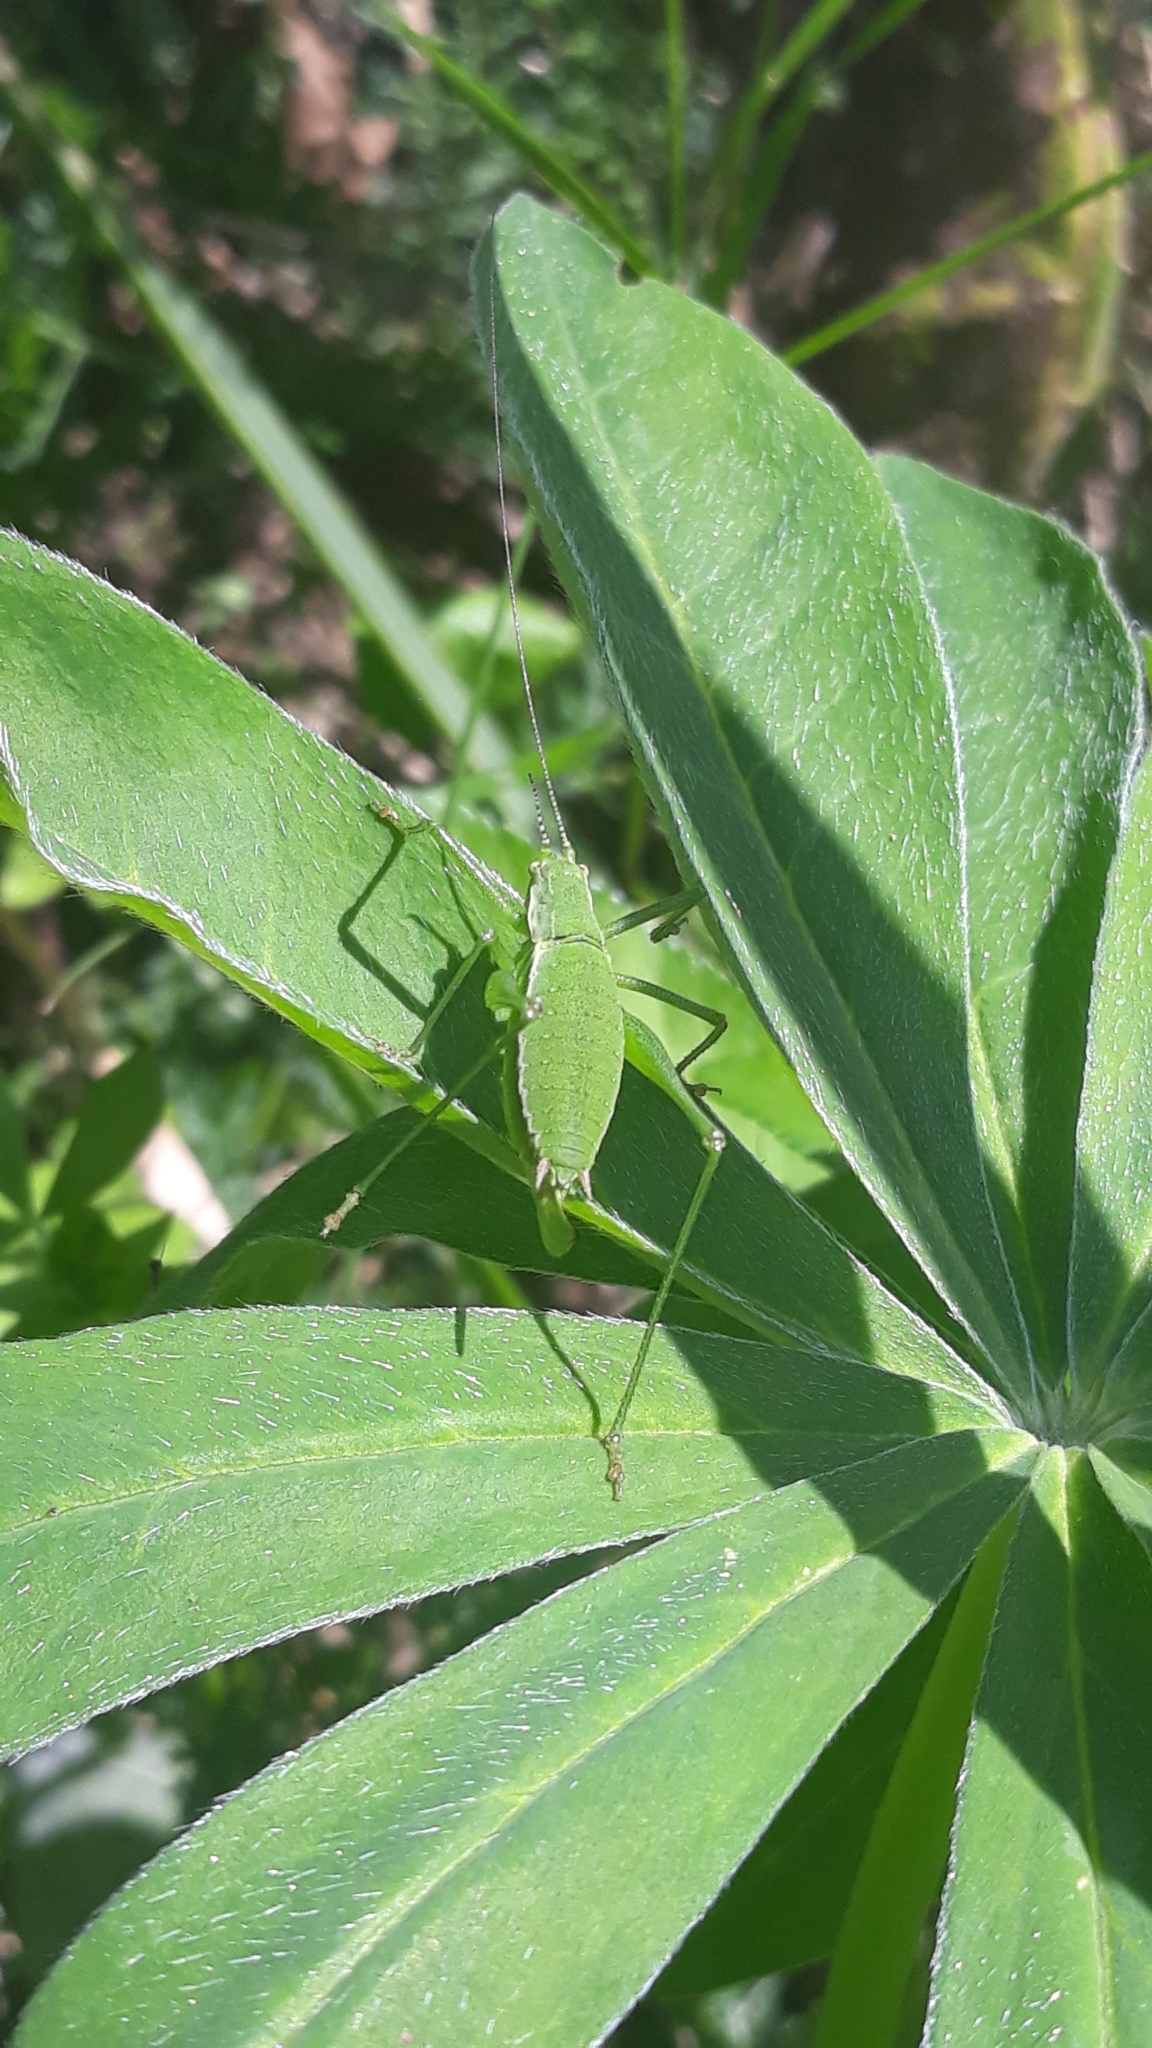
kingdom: Animalia
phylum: Arthropoda
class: Insecta
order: Orthoptera
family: Tettigoniidae
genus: Leptophyes
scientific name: Leptophyes boscii
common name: Balkan speckled bush-cricket
